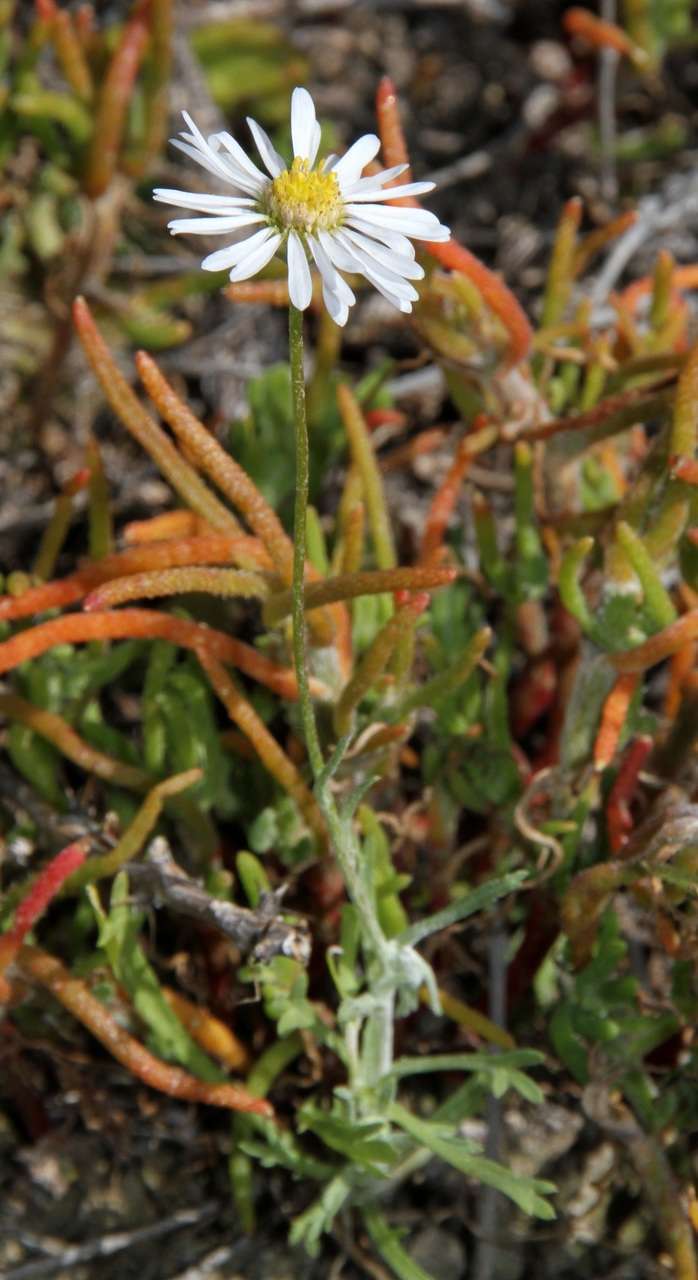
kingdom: Plantae
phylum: Tracheophyta
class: Magnoliopsida
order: Asterales
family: Asteraceae
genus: Vittadinia
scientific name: Vittadinia dentata
